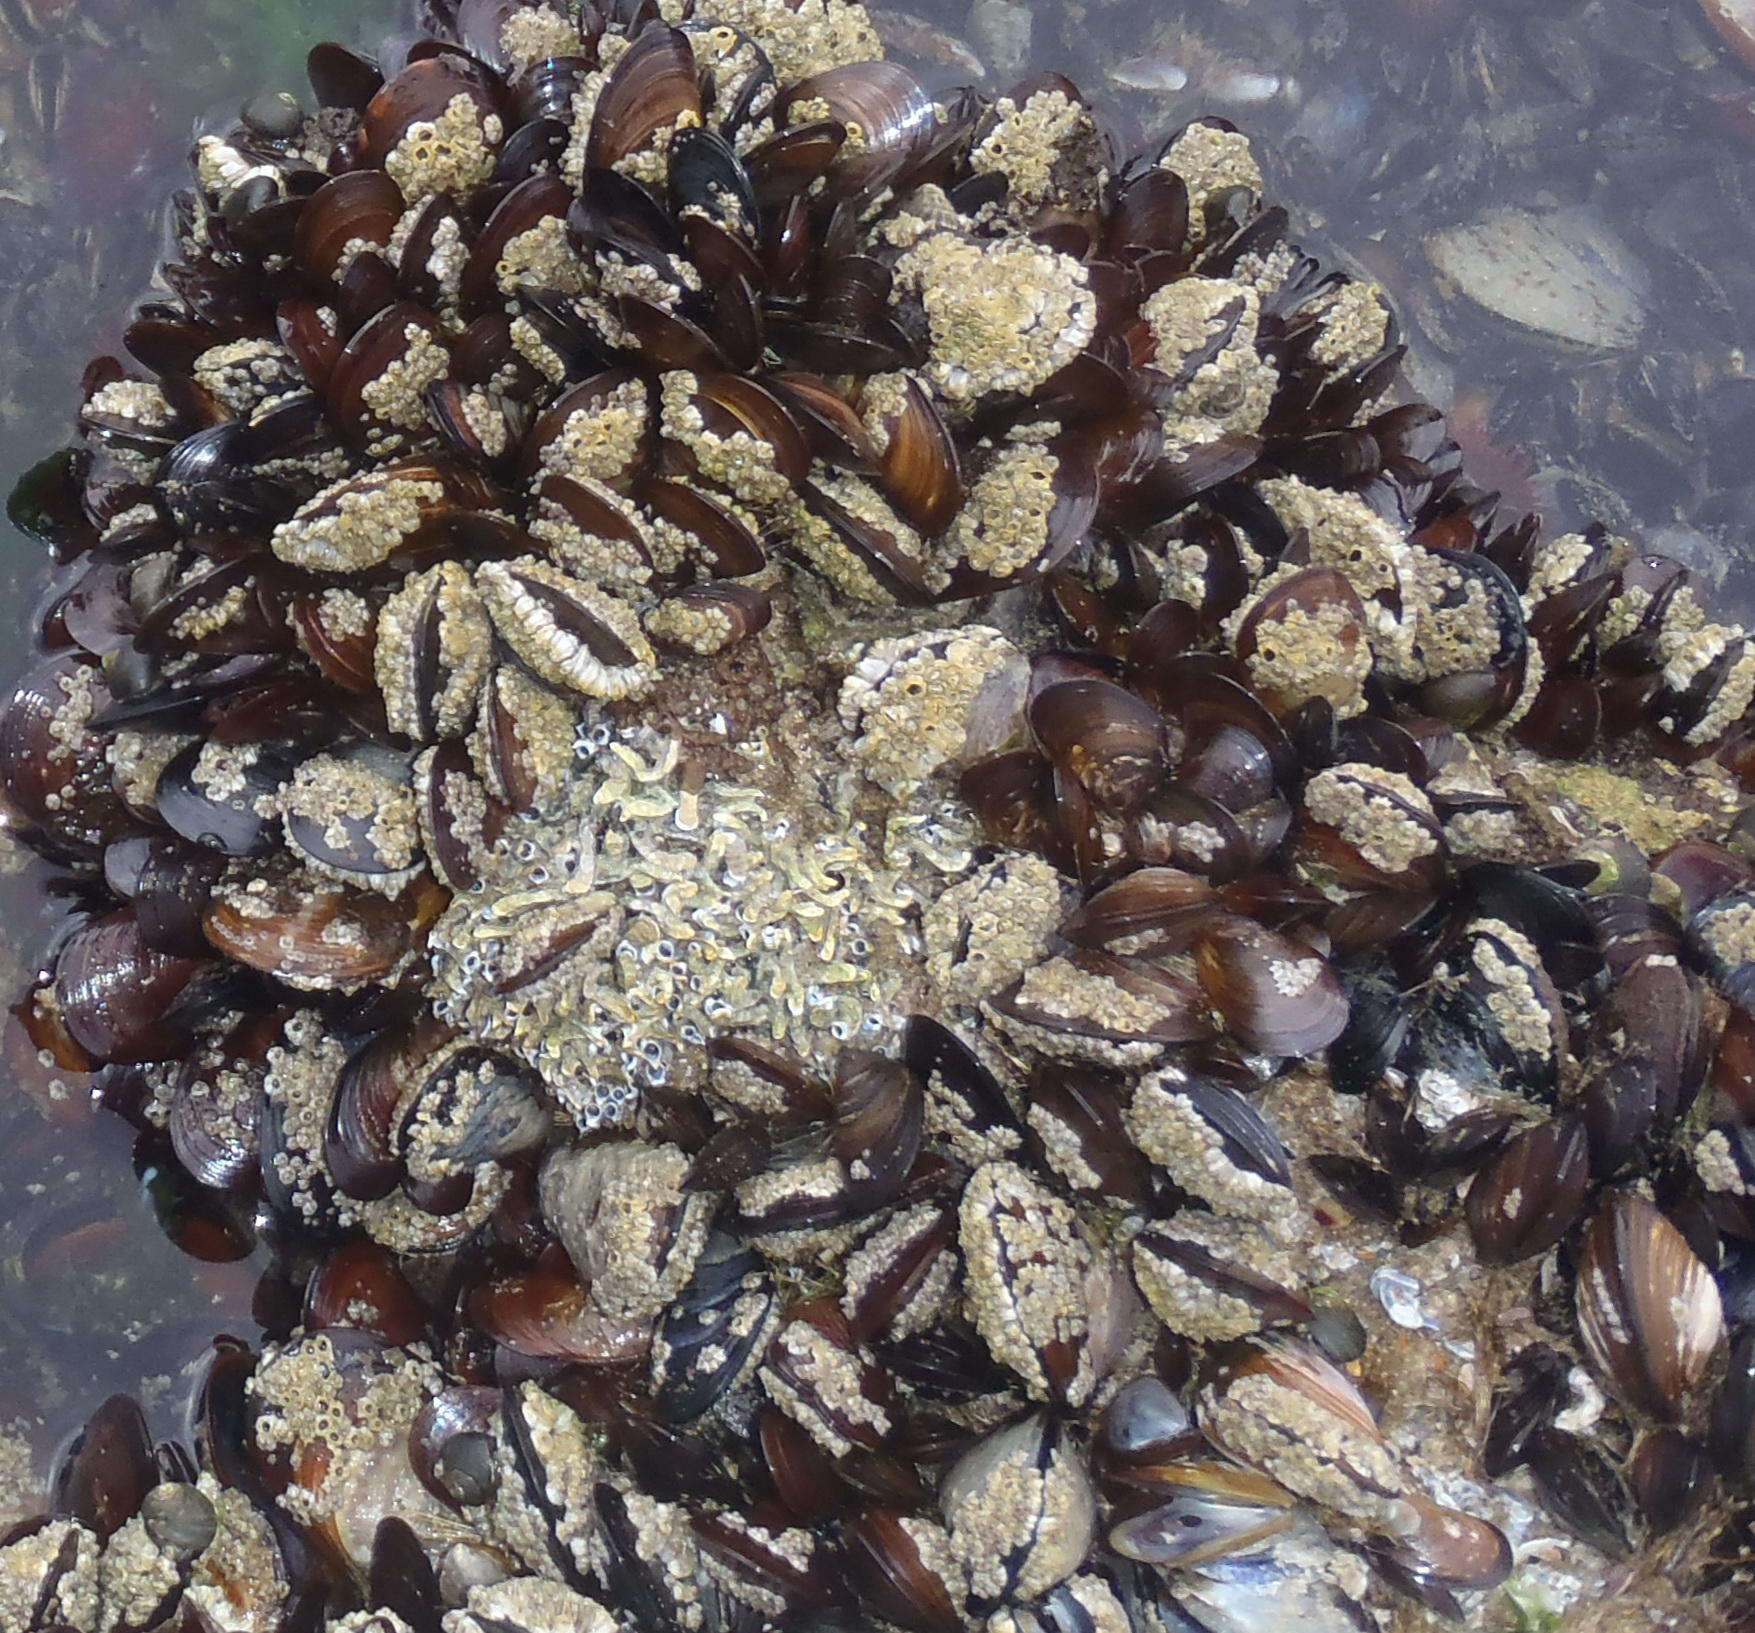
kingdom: Animalia
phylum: Mollusca
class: Bivalvia
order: Mytilida
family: Mytilidae
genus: Perna
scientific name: Perna perna
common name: Mexilhao mussel
